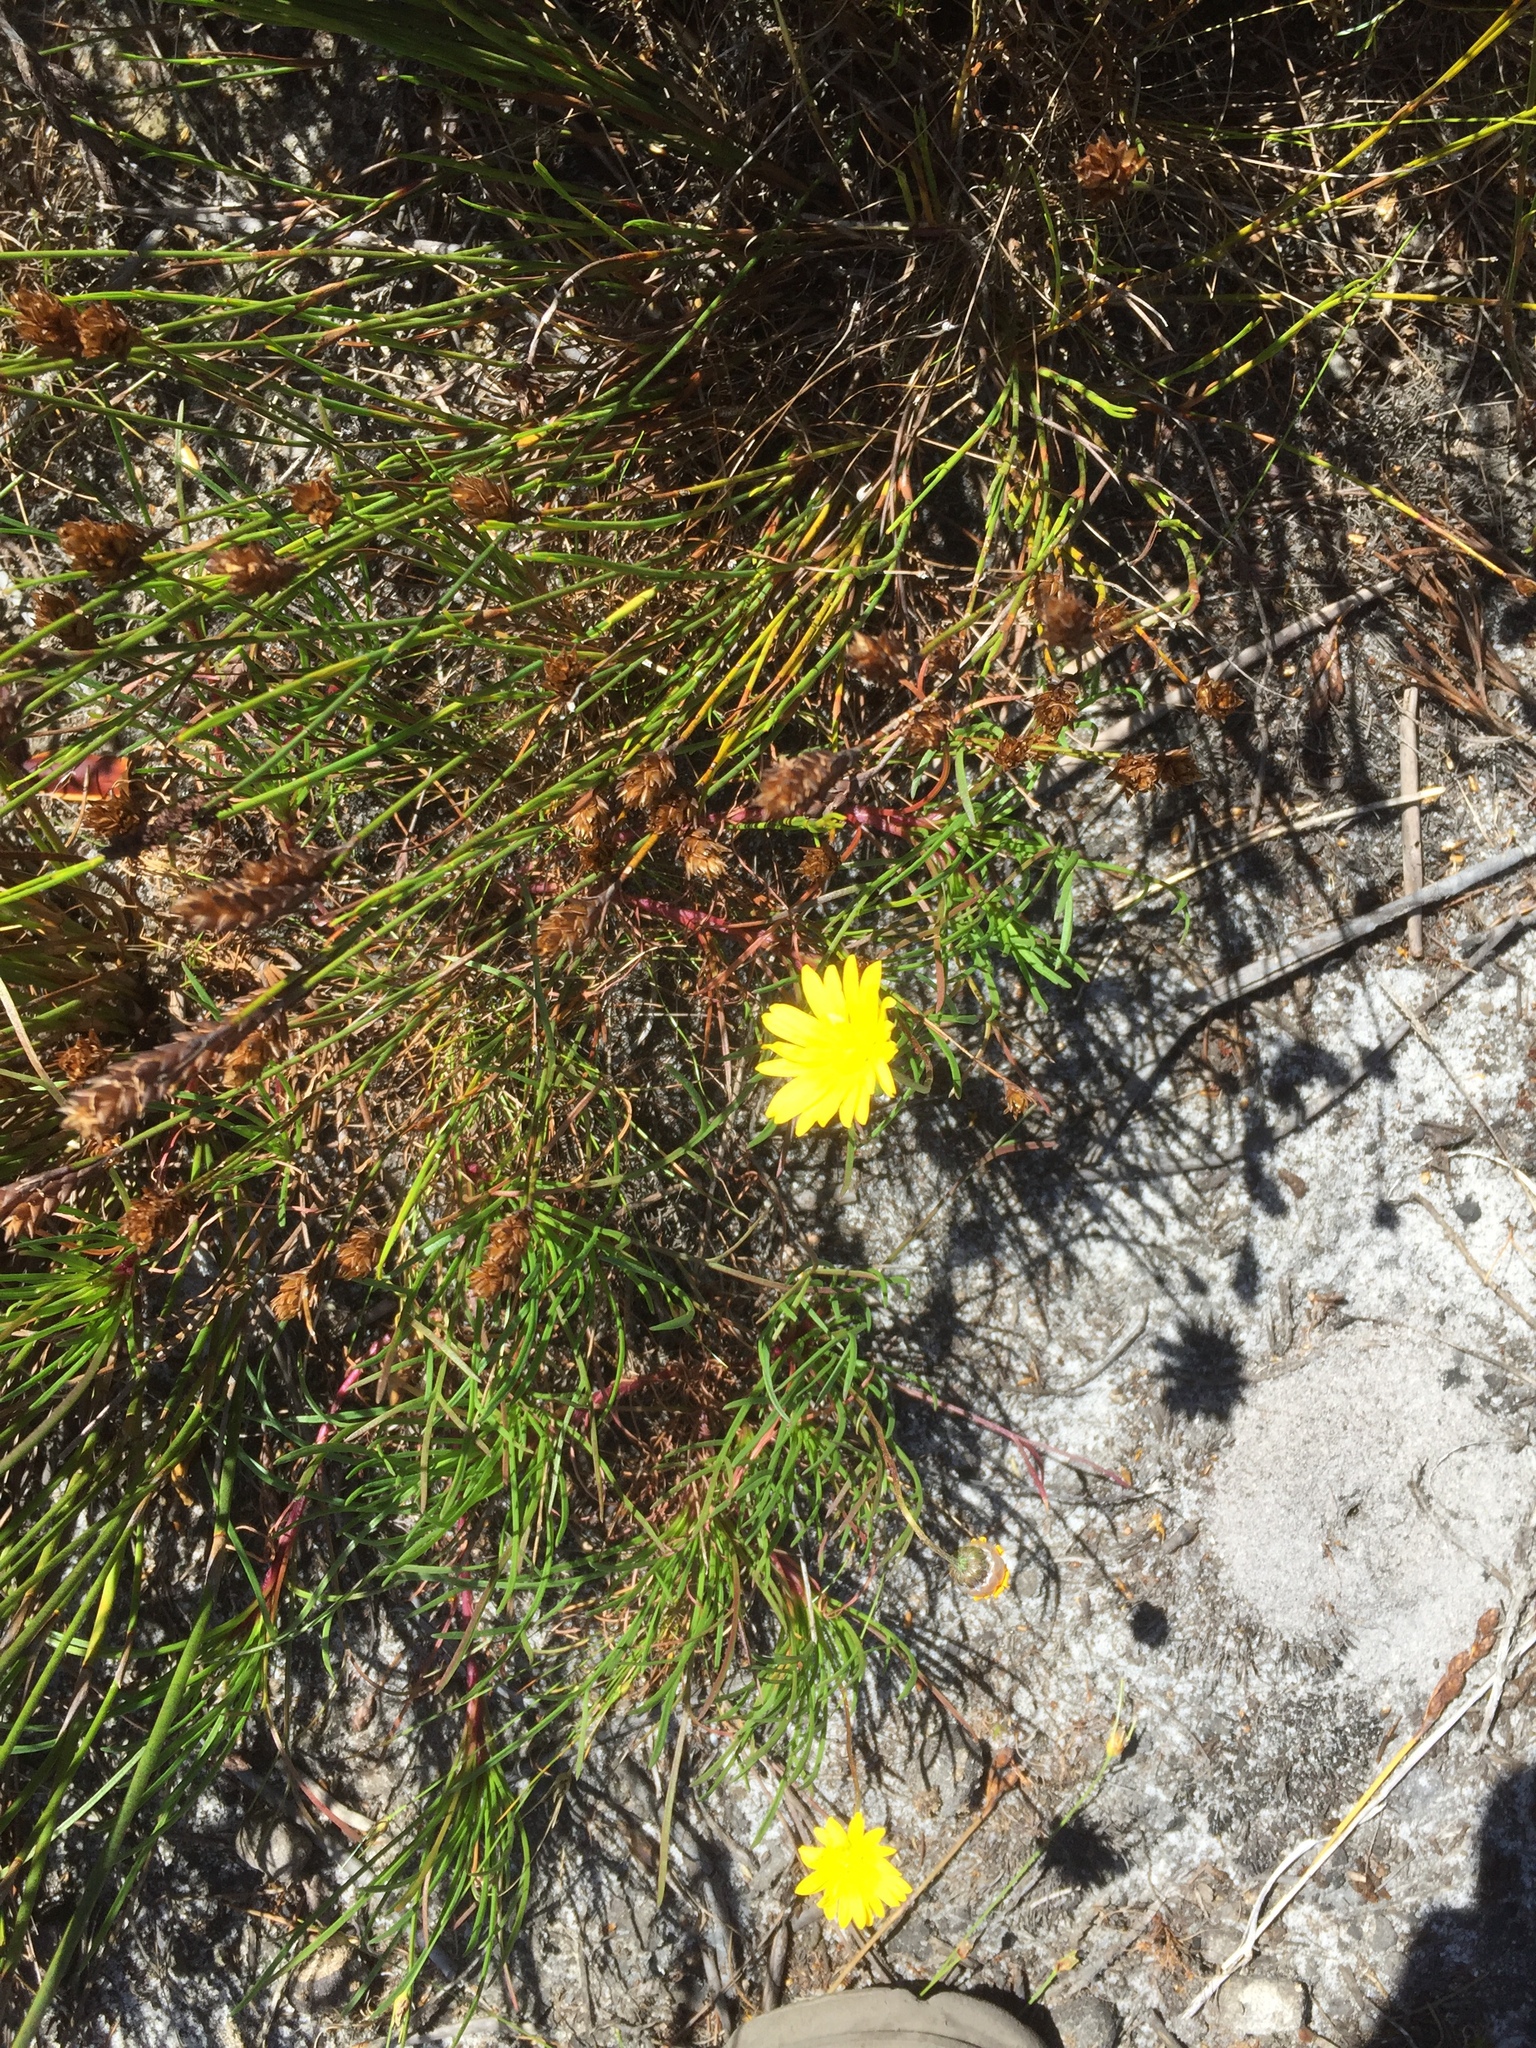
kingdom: Plantae
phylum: Tracheophyta
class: Magnoliopsida
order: Asterales
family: Asteraceae
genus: Ursinia
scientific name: Ursinia tenuifolia
